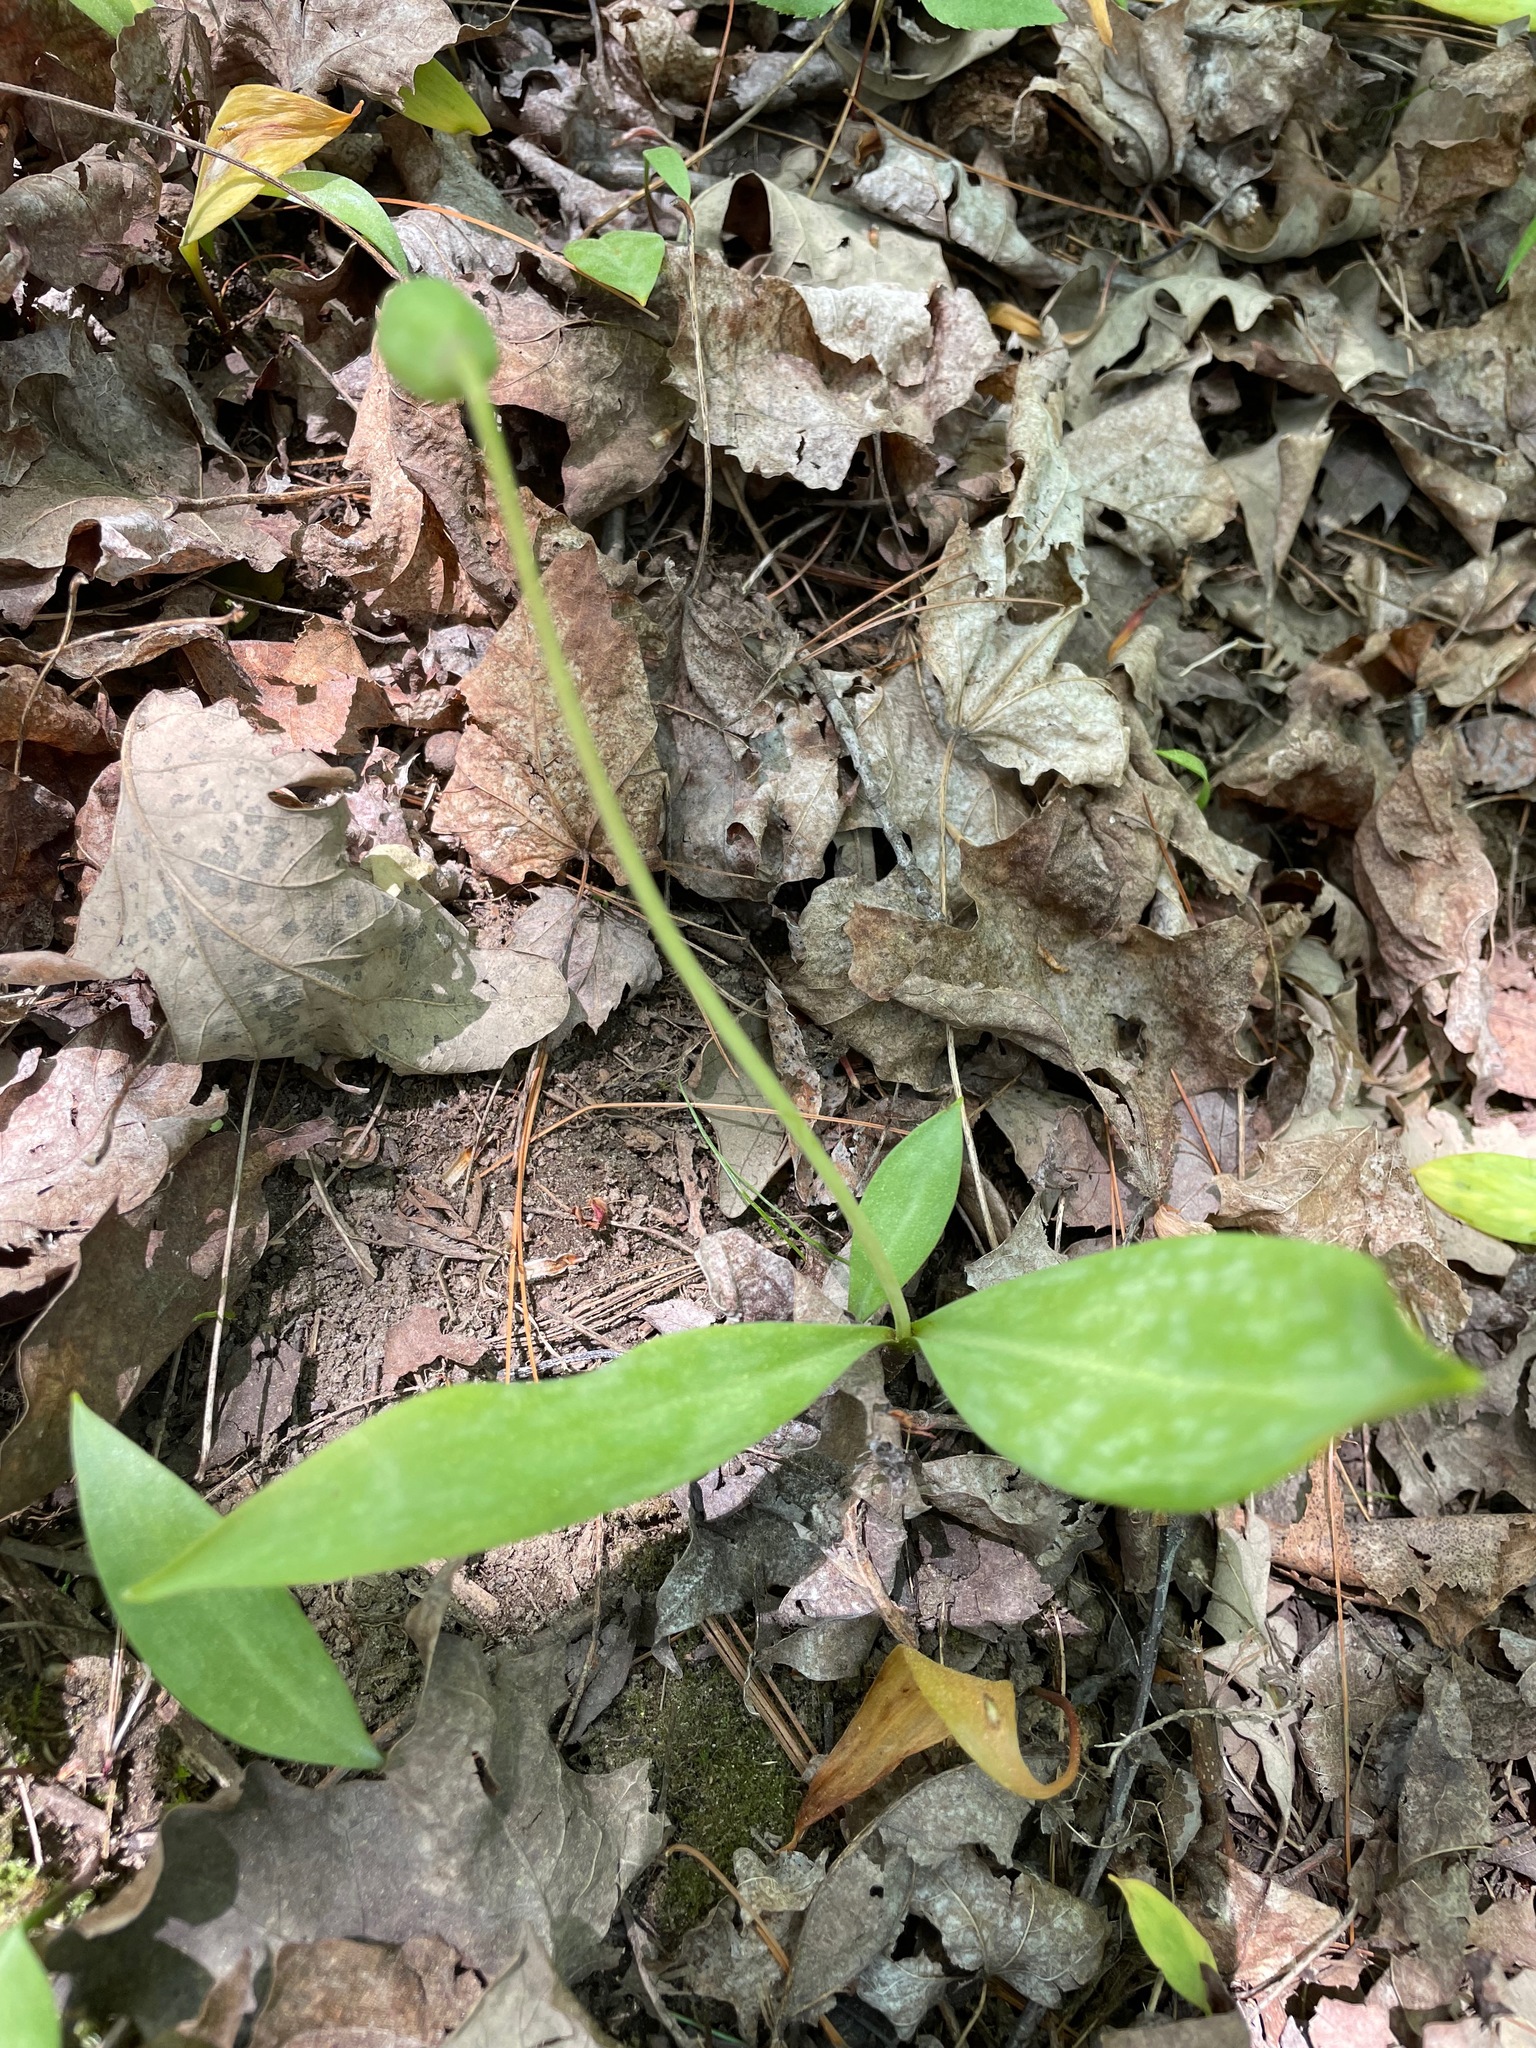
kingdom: Plantae
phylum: Tracheophyta
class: Liliopsida
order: Liliales
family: Liliaceae
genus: Erythronium
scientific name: Erythronium americanum
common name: Yellow adder's-tongue
